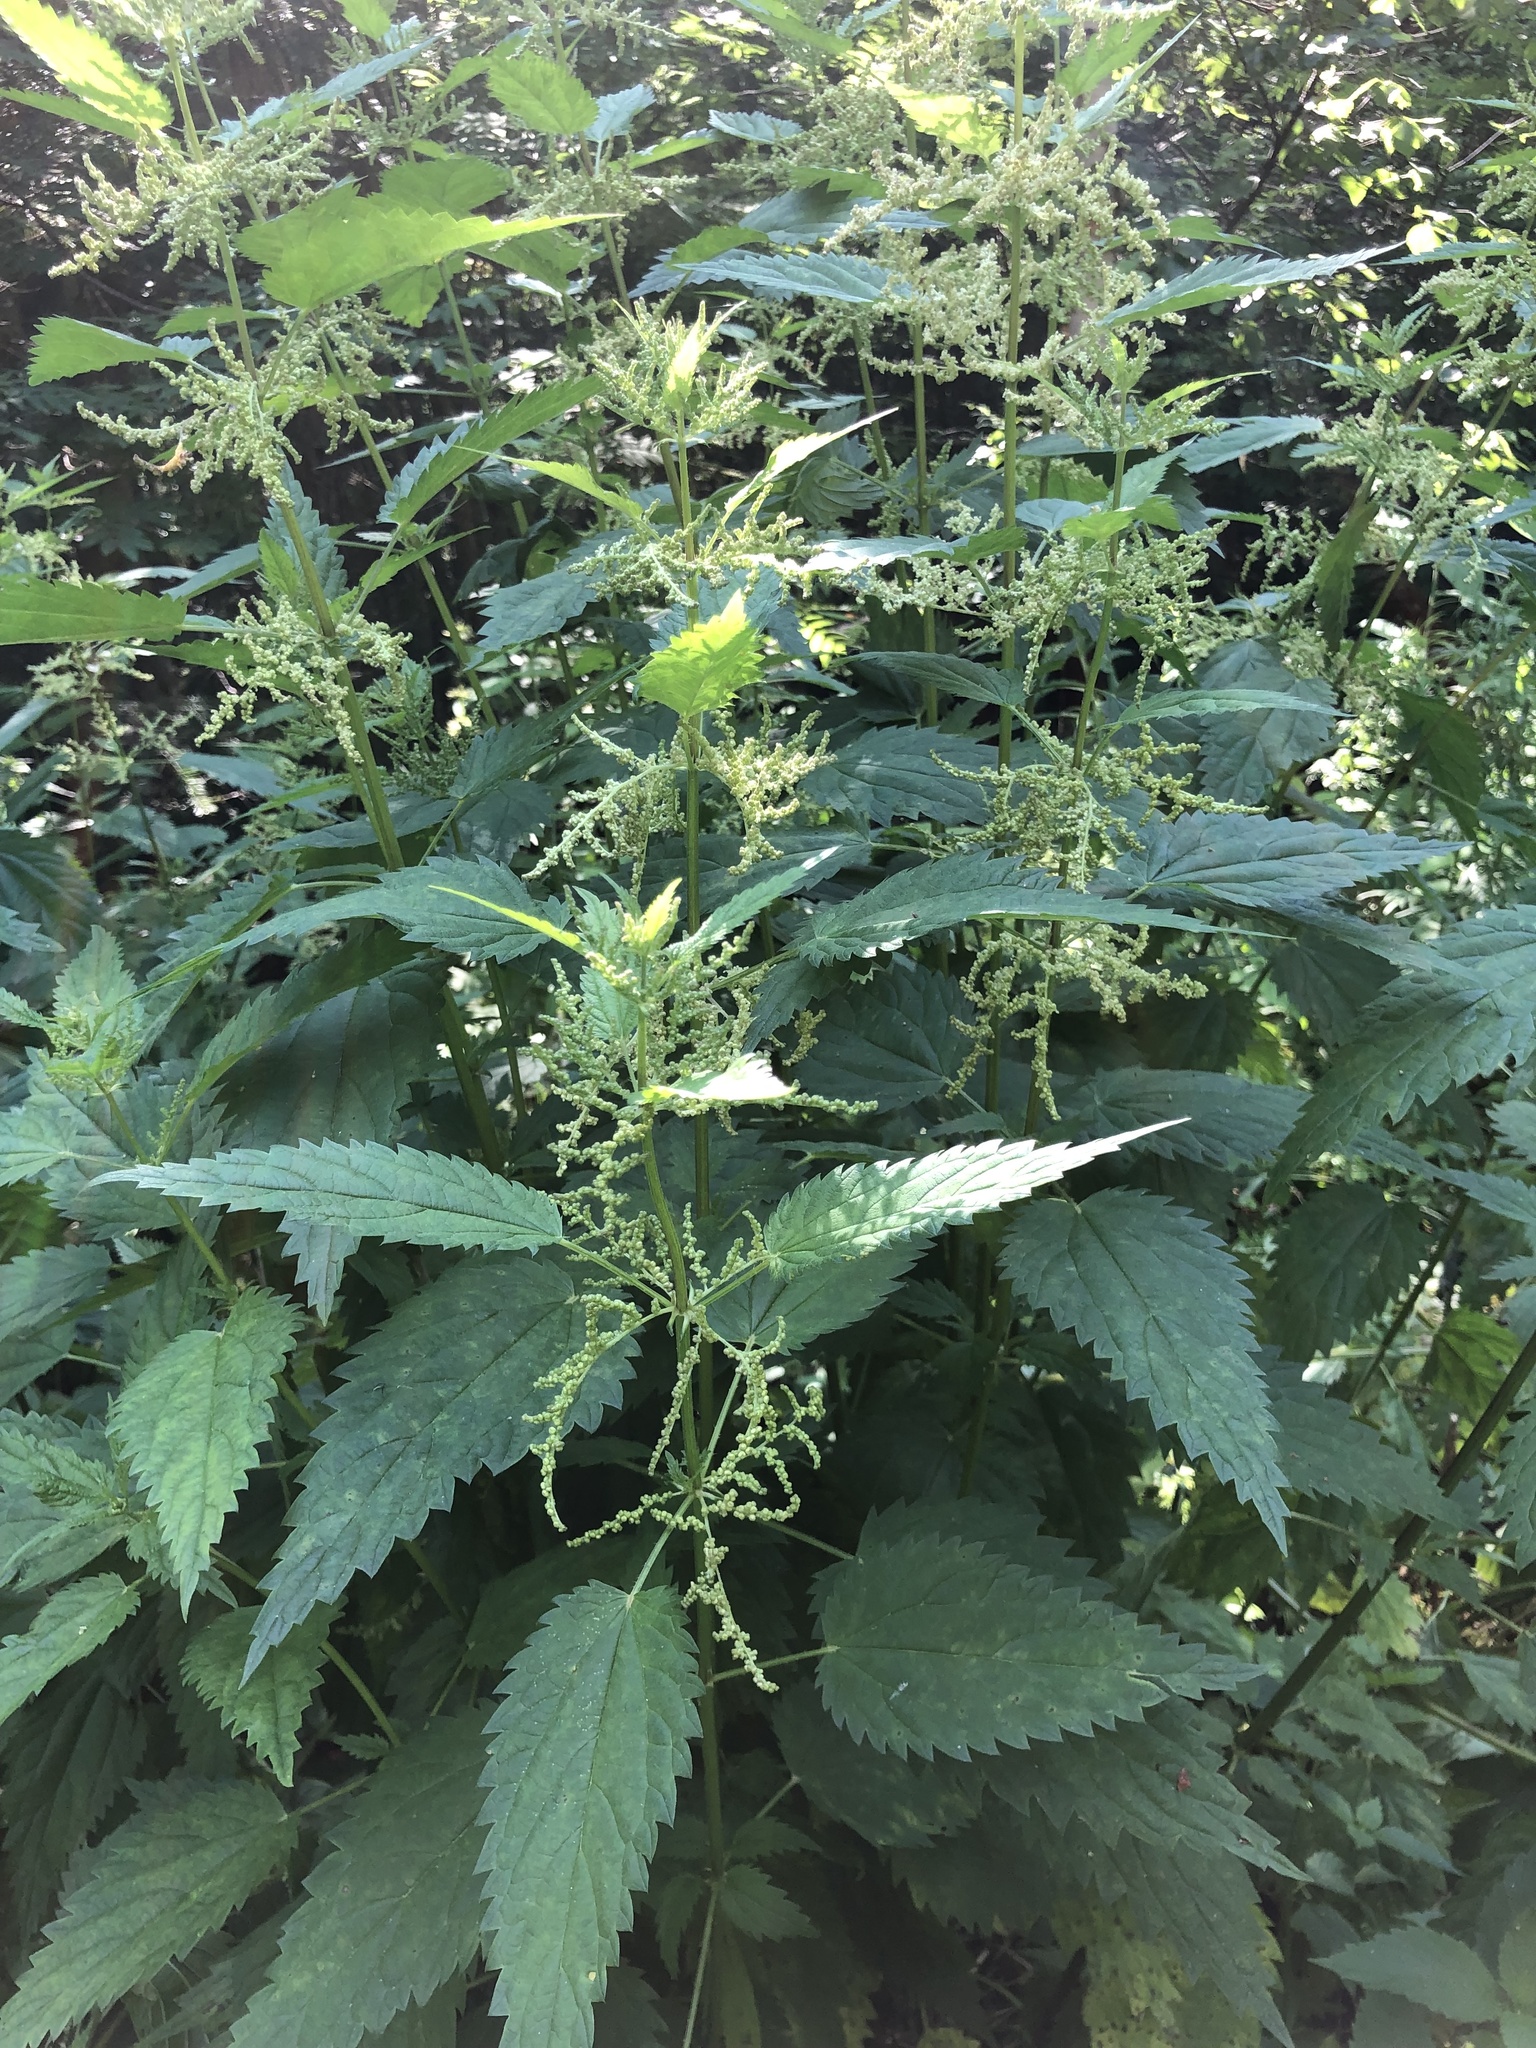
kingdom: Plantae
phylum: Tracheophyta
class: Magnoliopsida
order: Rosales
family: Urticaceae
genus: Urtica
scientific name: Urtica dioica
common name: Common nettle
